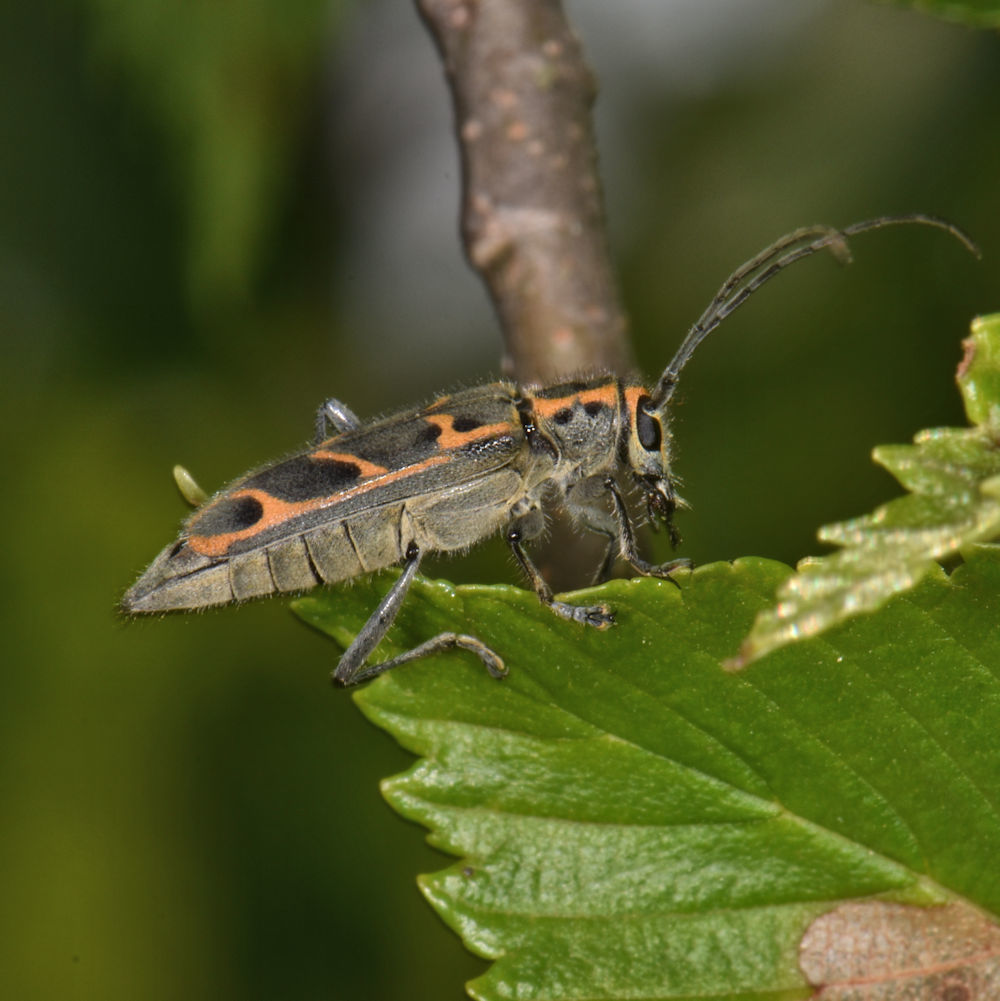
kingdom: Animalia
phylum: Arthropoda
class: Insecta
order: Coleoptera
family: Cerambycidae
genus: Saperda
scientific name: Saperda tridentata
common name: Elm borer
